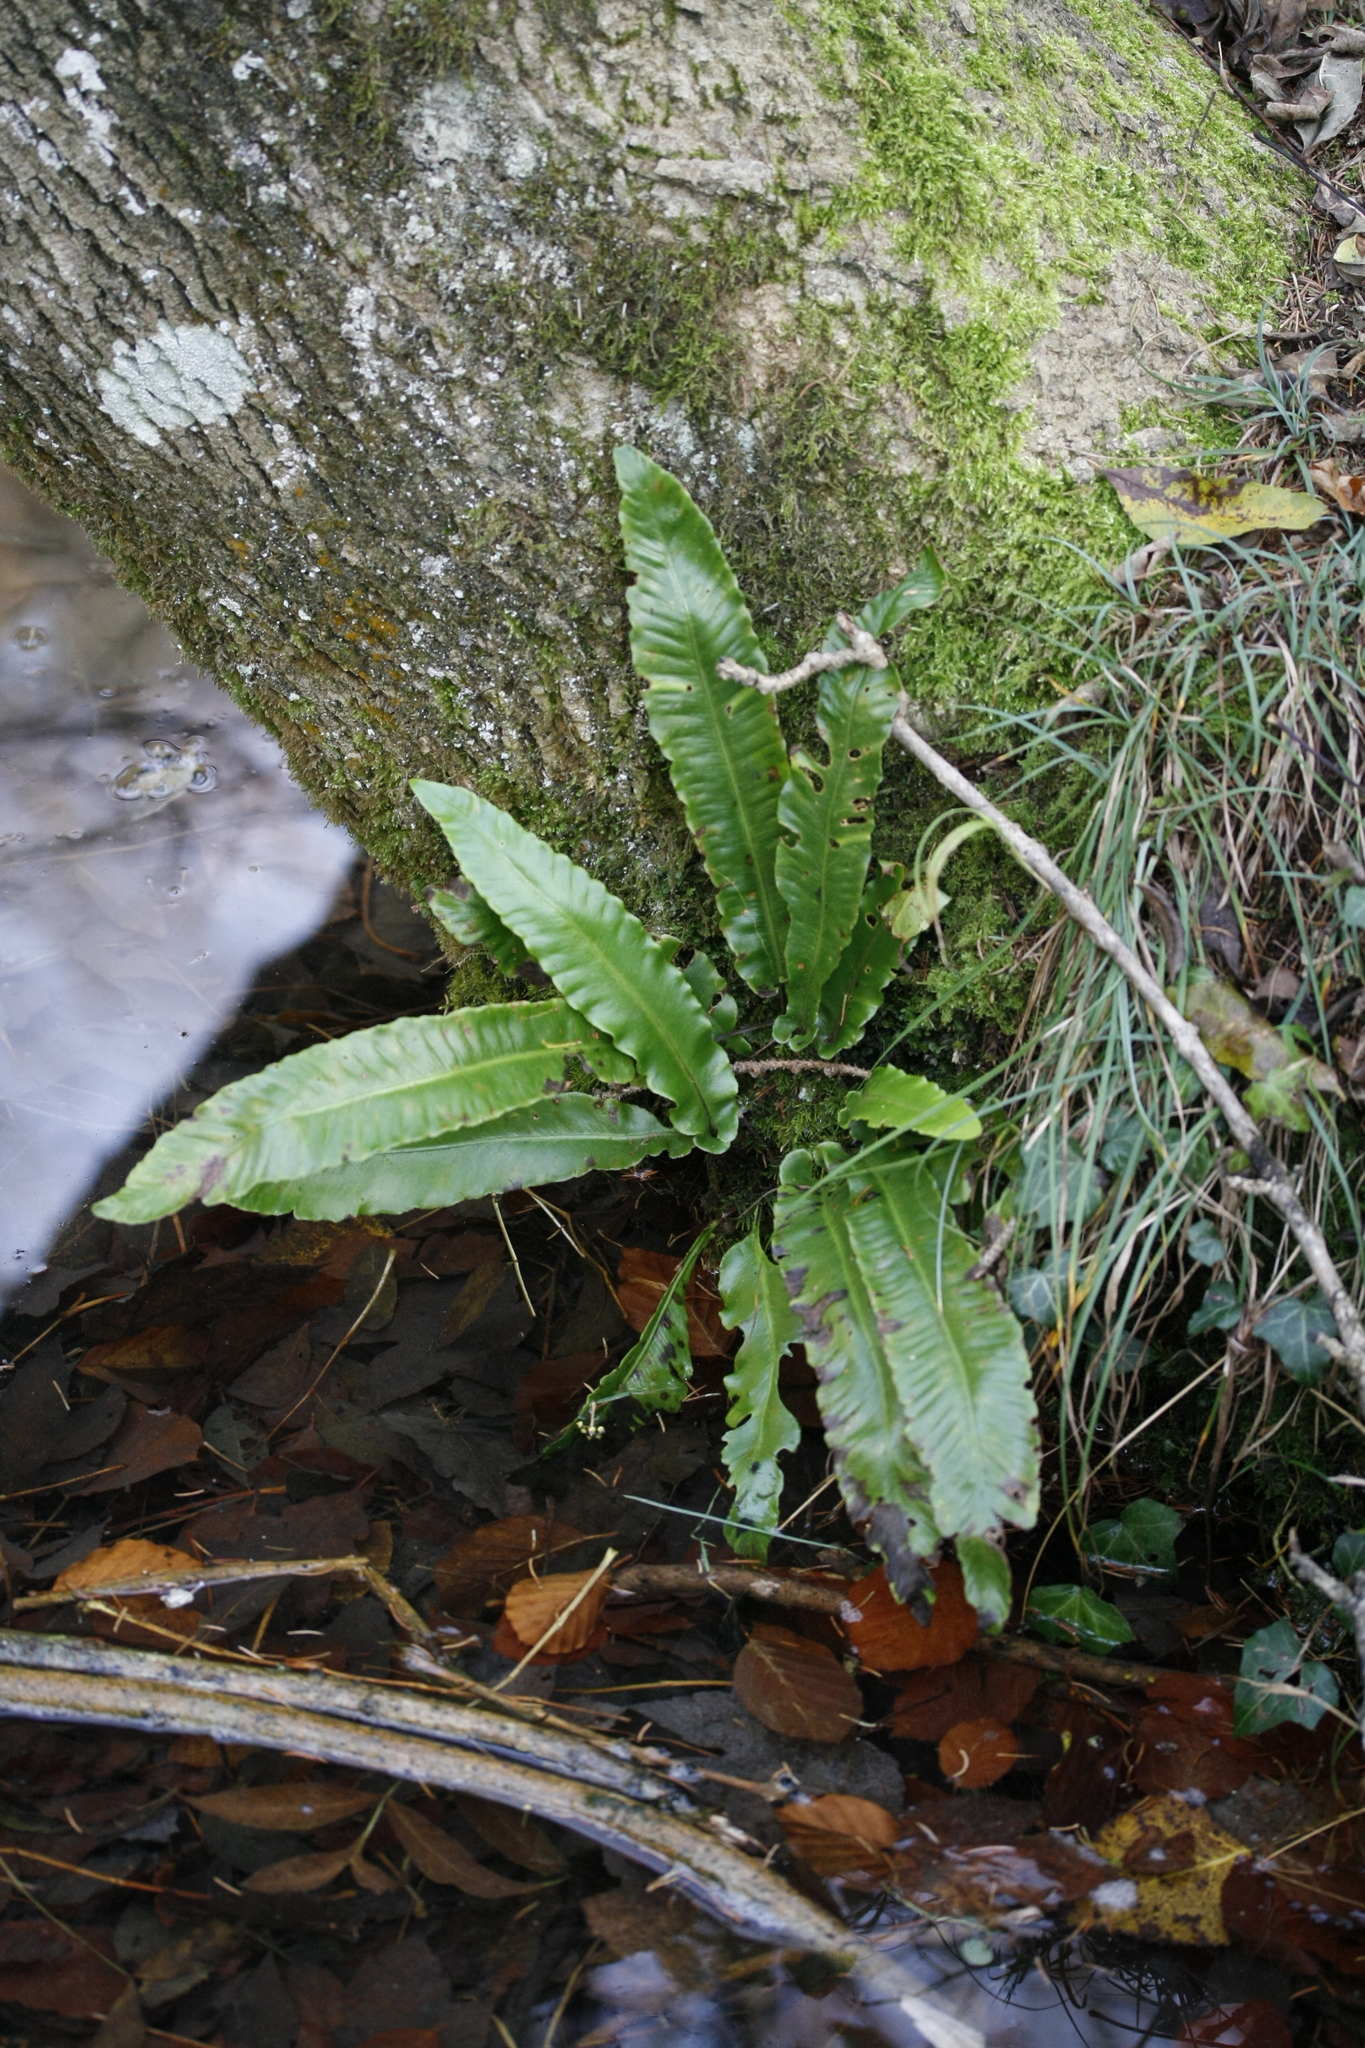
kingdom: Plantae
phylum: Tracheophyta
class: Polypodiopsida
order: Polypodiales
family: Aspleniaceae
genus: Asplenium
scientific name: Asplenium scolopendrium
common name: Hart's-tongue fern
